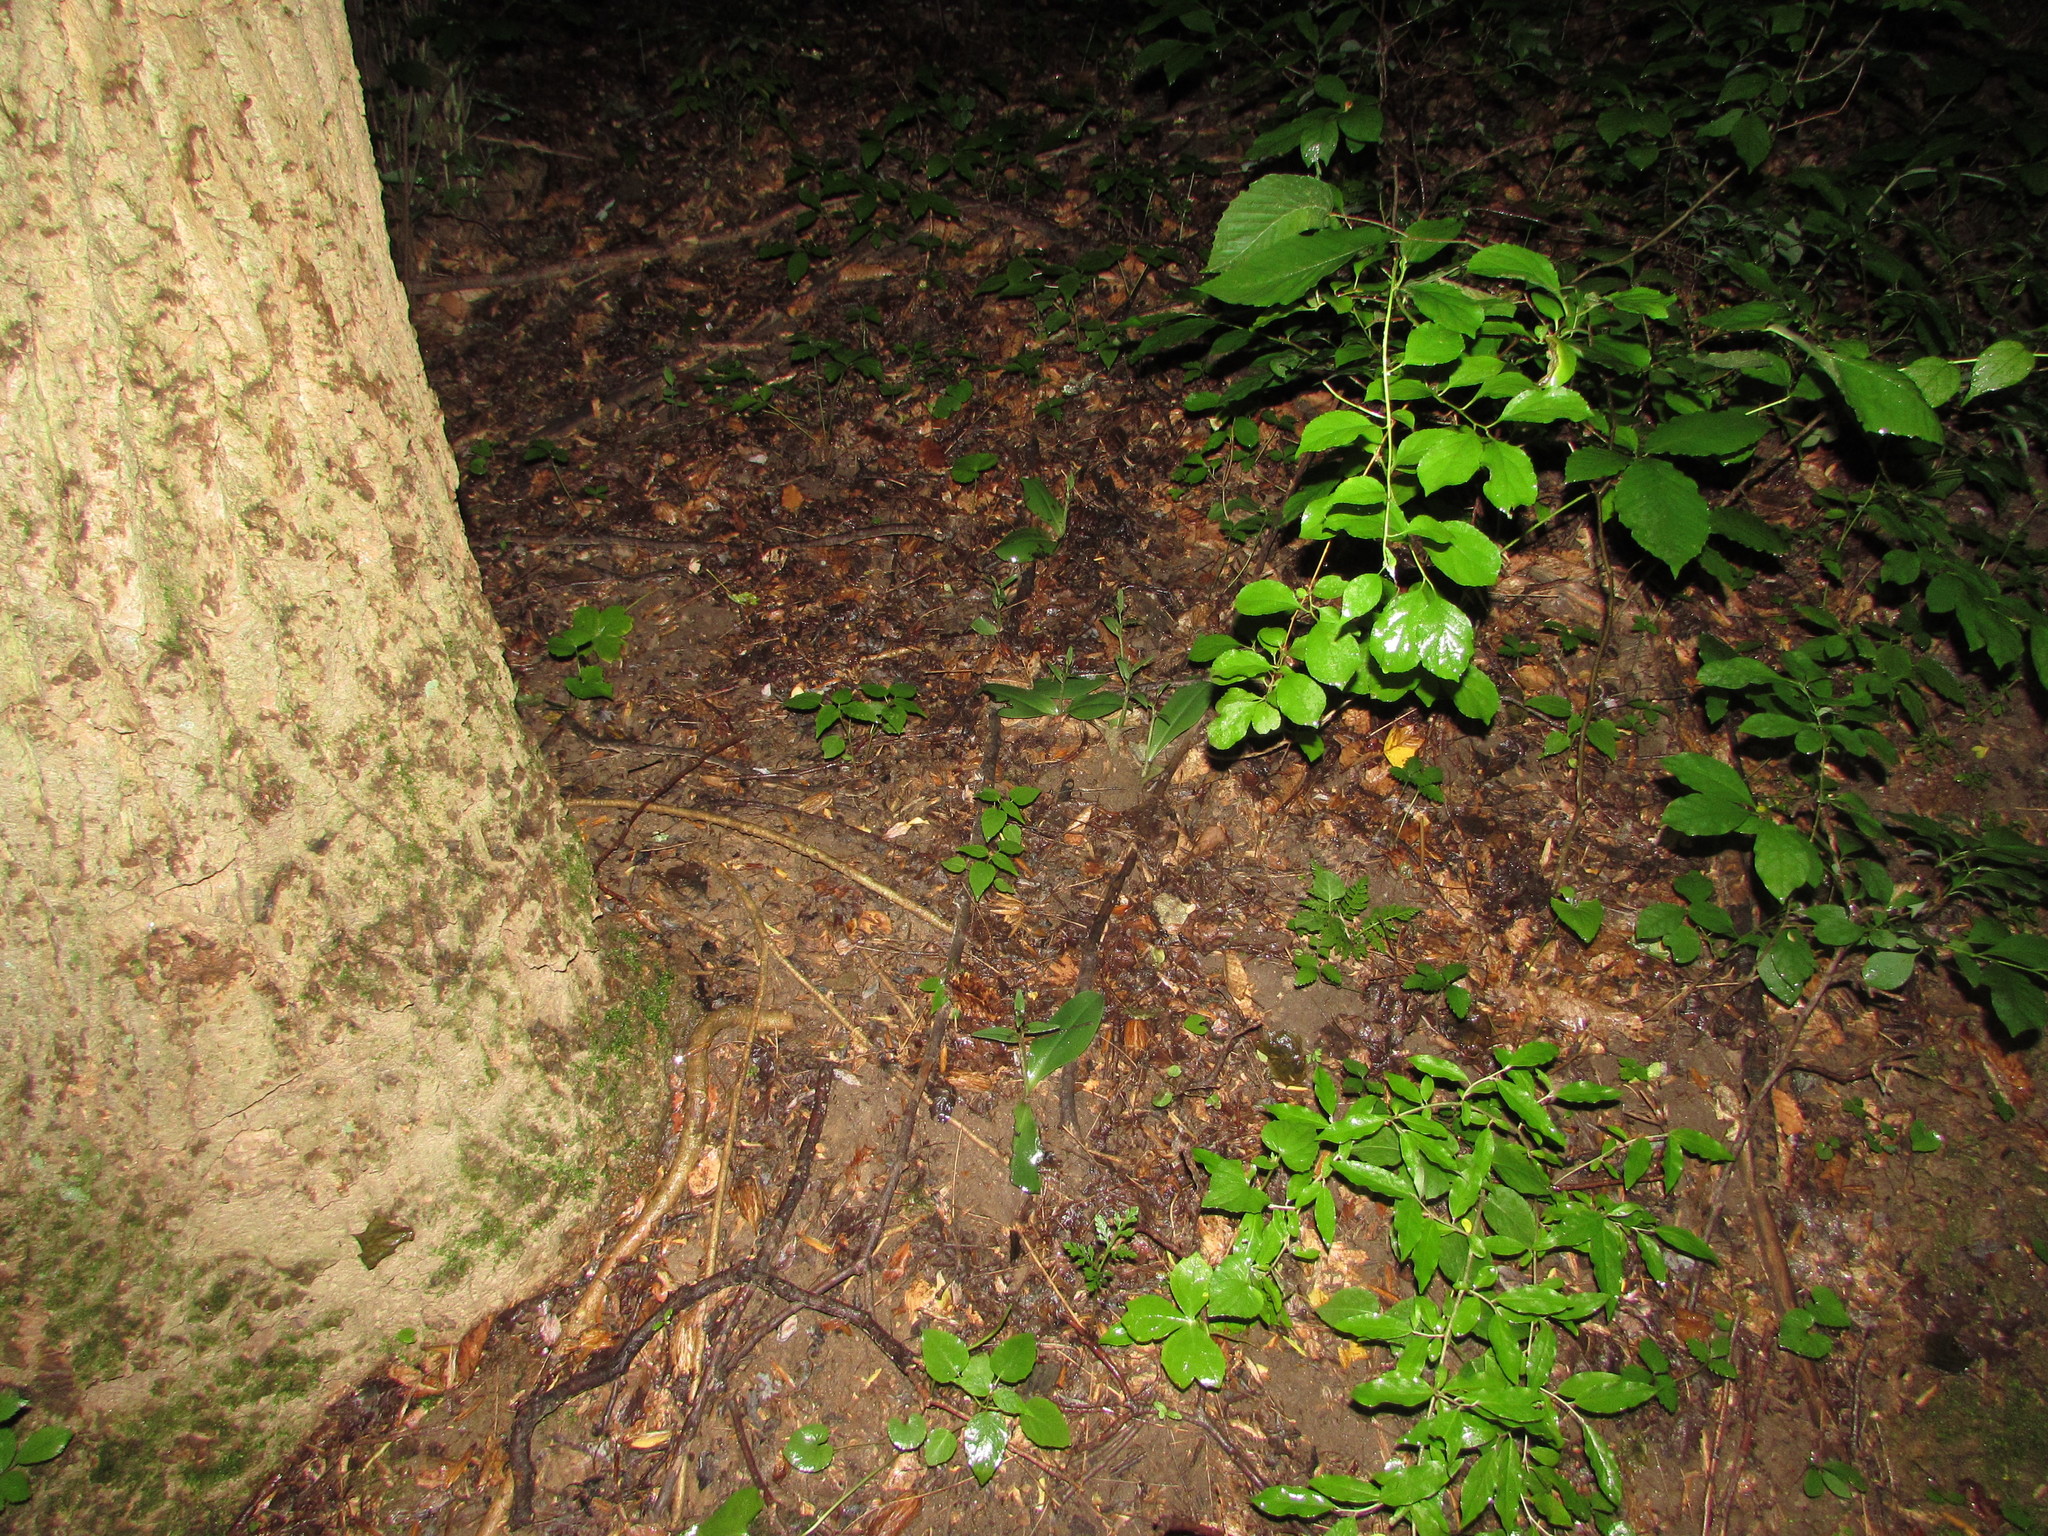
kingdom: Plantae
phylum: Tracheophyta
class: Liliopsida
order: Asparagales
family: Orchidaceae
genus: Galearis
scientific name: Galearis spectabilis
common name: Purple-hooded orchis
